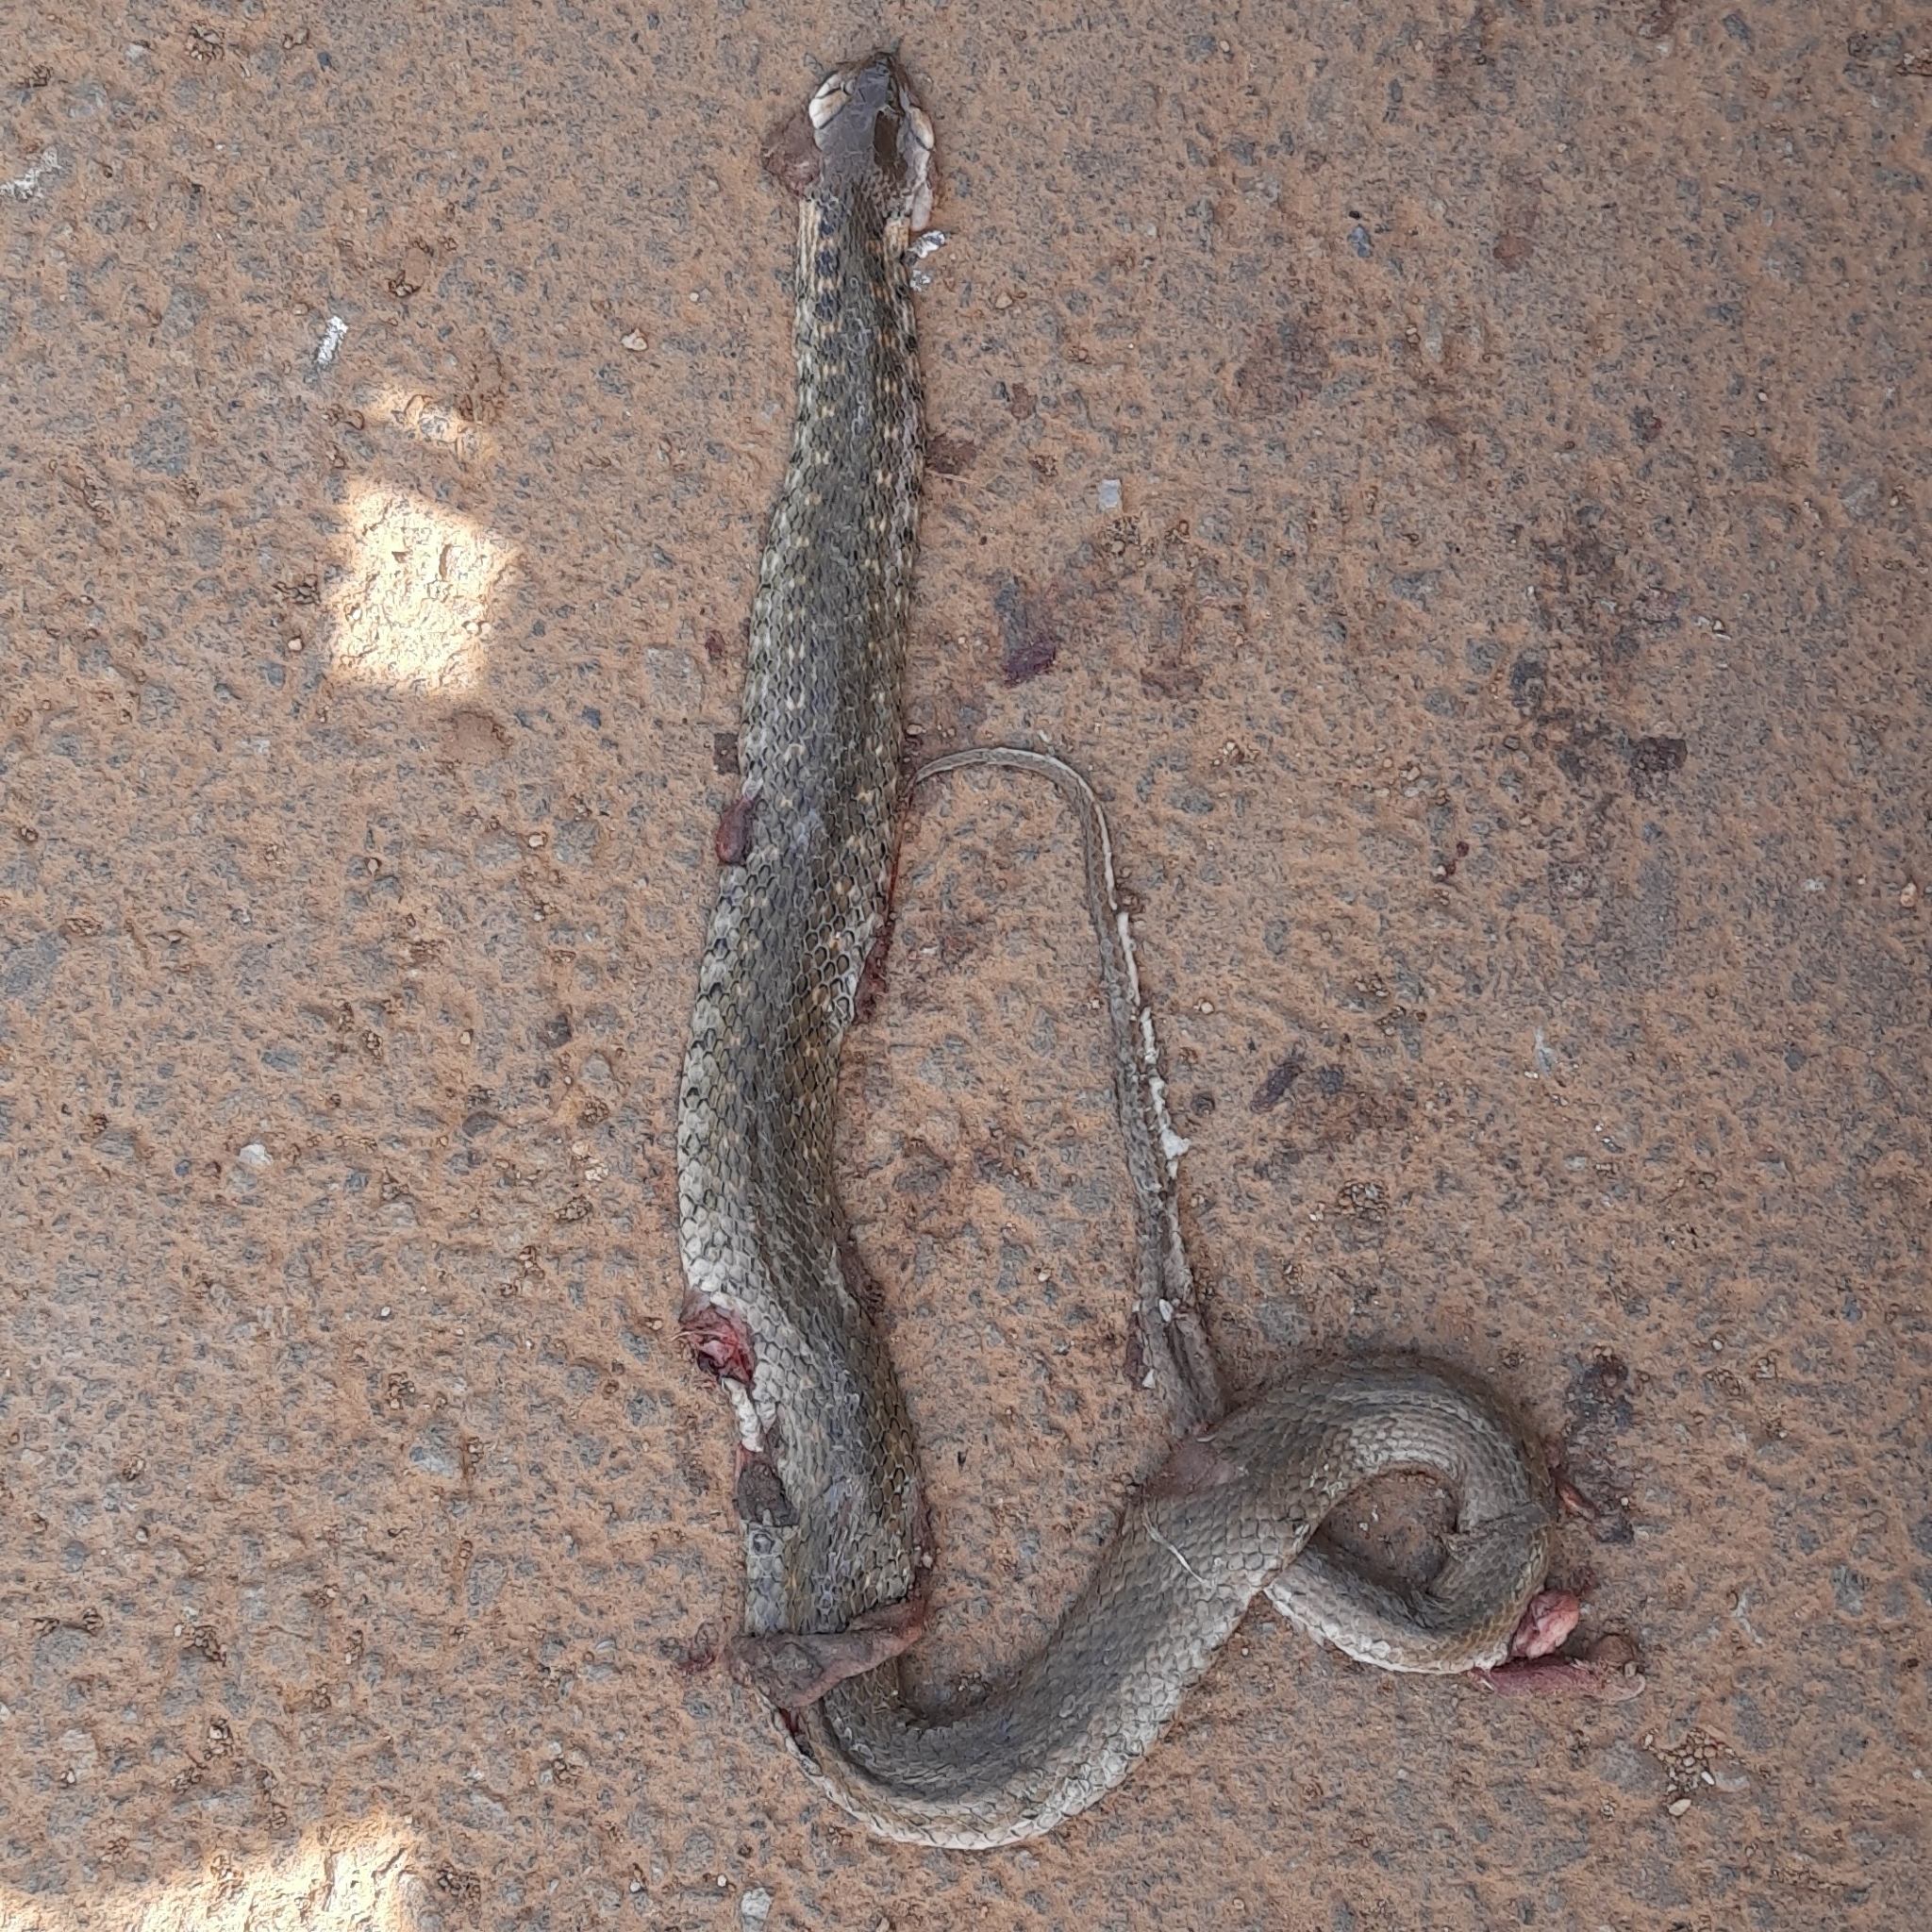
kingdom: Animalia
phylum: Chordata
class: Squamata
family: Colubridae
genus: Fowlea
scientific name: Fowlea piscator
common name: Asiatic water snake
